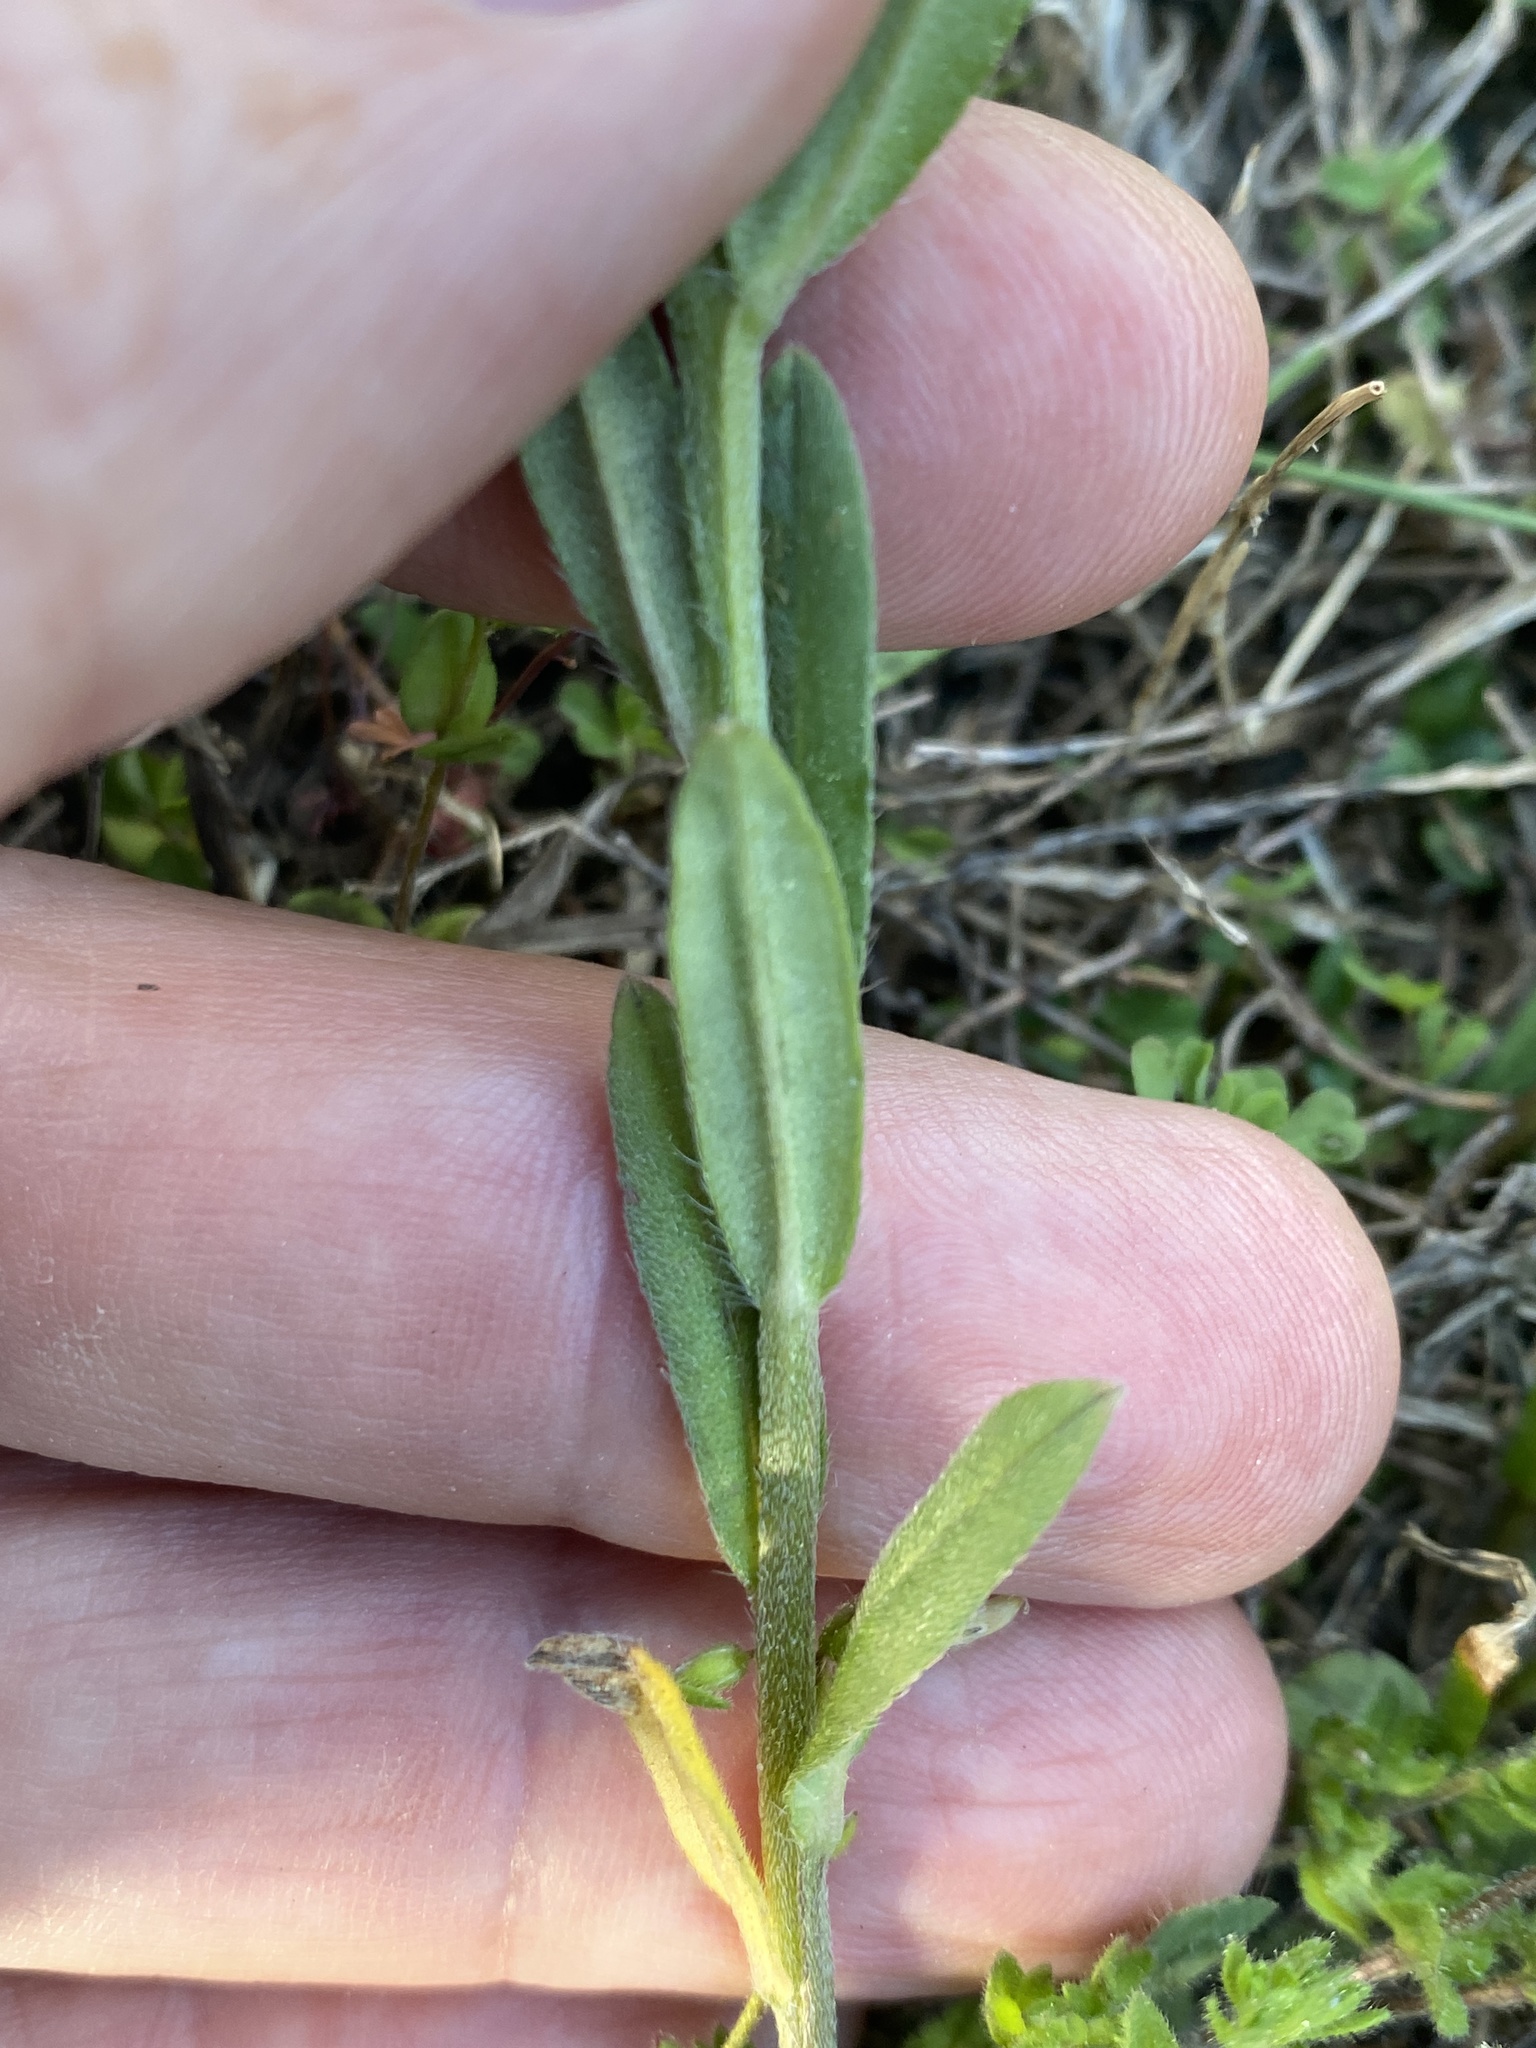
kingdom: Plantae
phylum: Tracheophyta
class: Magnoliopsida
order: Boraginales
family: Boraginaceae
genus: Buglossoides
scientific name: Buglossoides arvensis
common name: Corn gromwell
